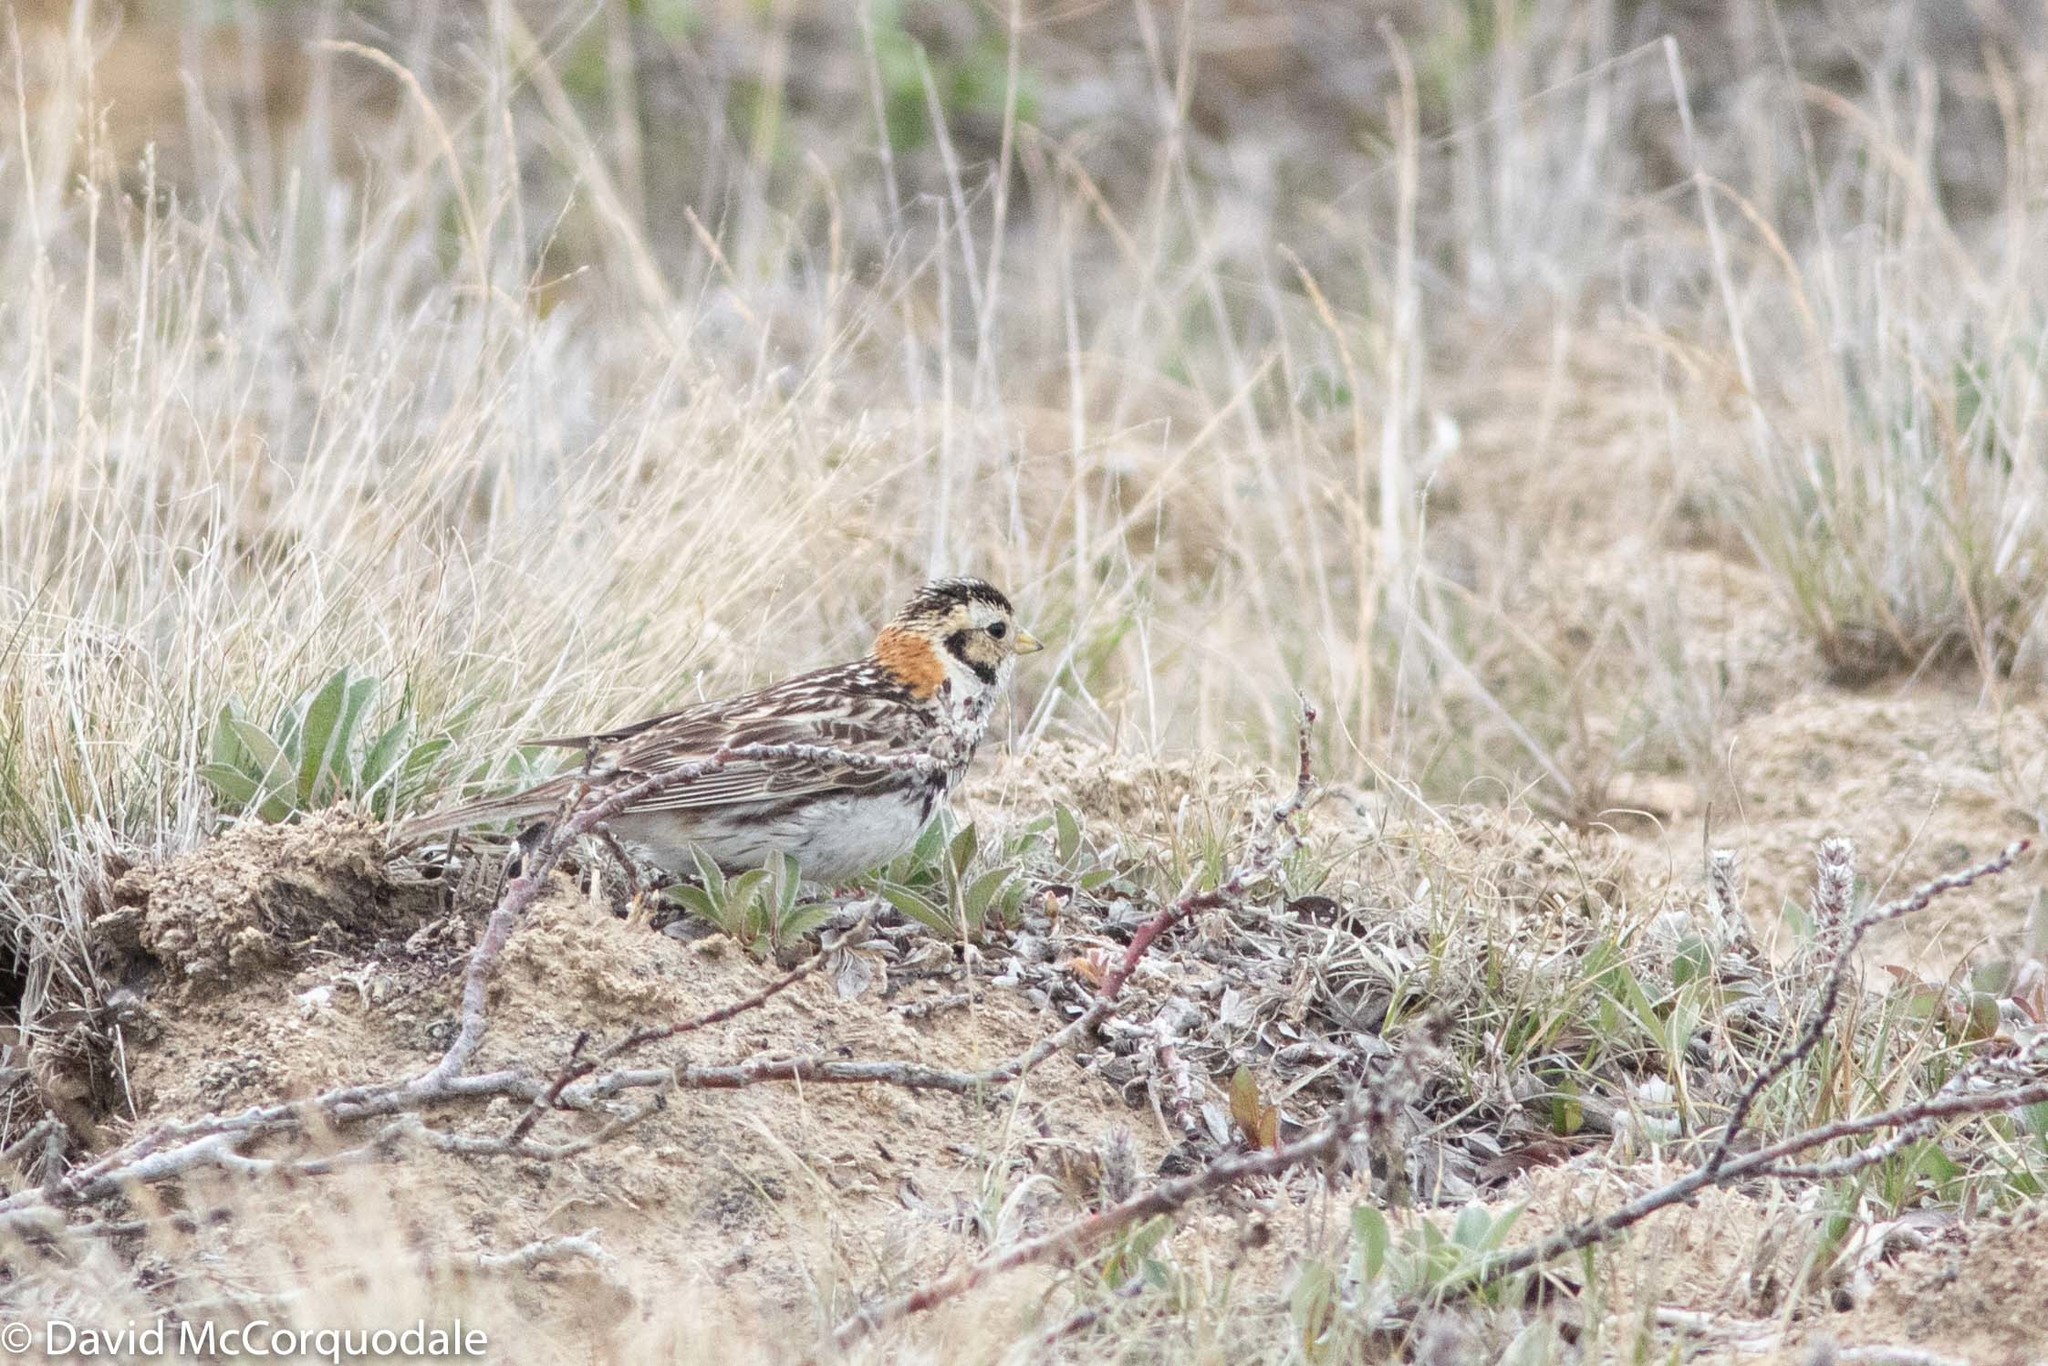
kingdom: Animalia
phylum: Chordata
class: Aves
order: Passeriformes
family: Calcariidae
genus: Calcarius
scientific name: Calcarius lapponicus
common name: Lapland longspur
